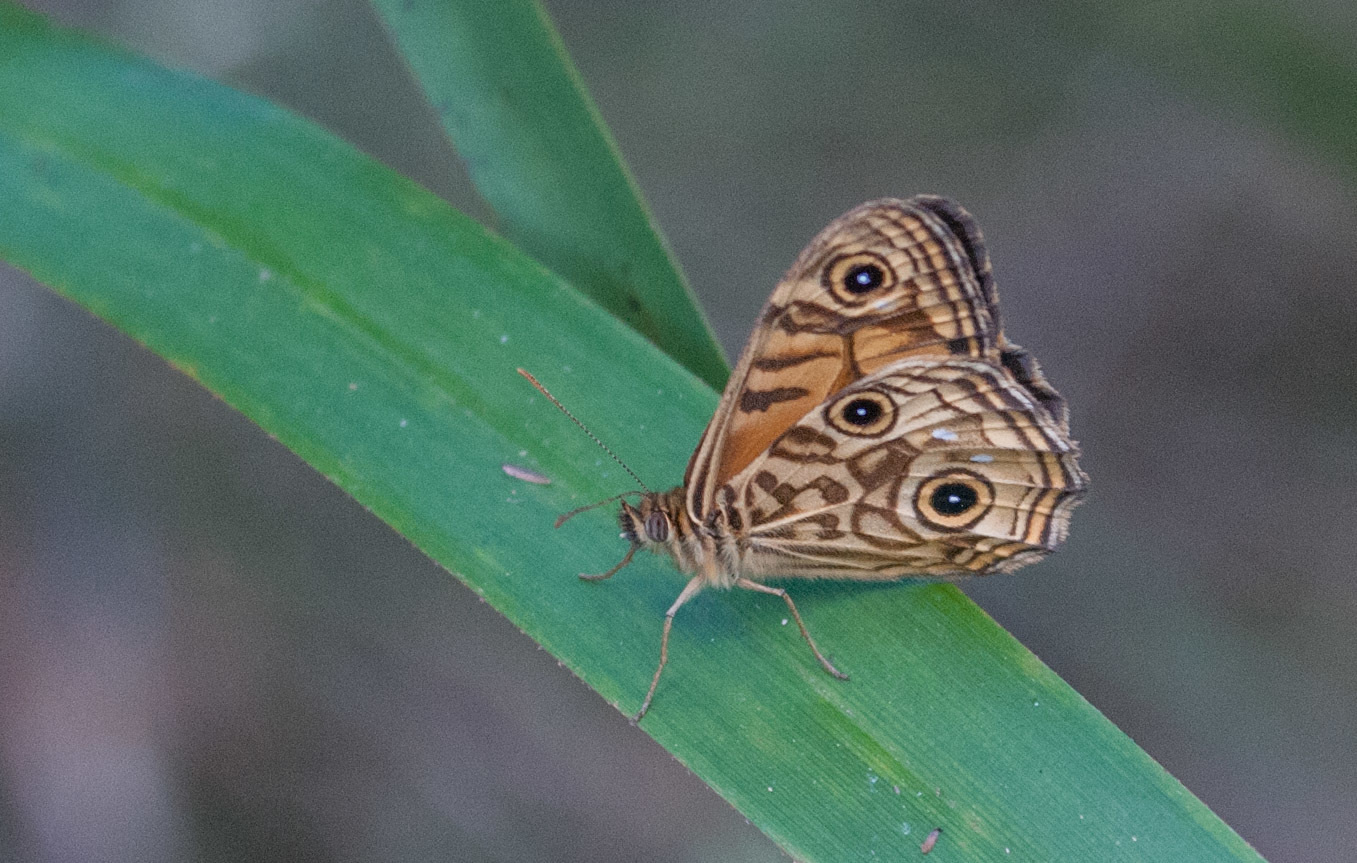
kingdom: Animalia
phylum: Arthropoda
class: Insecta
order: Lepidoptera
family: Nymphalidae
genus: Geitoneura
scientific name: Geitoneura acantha
